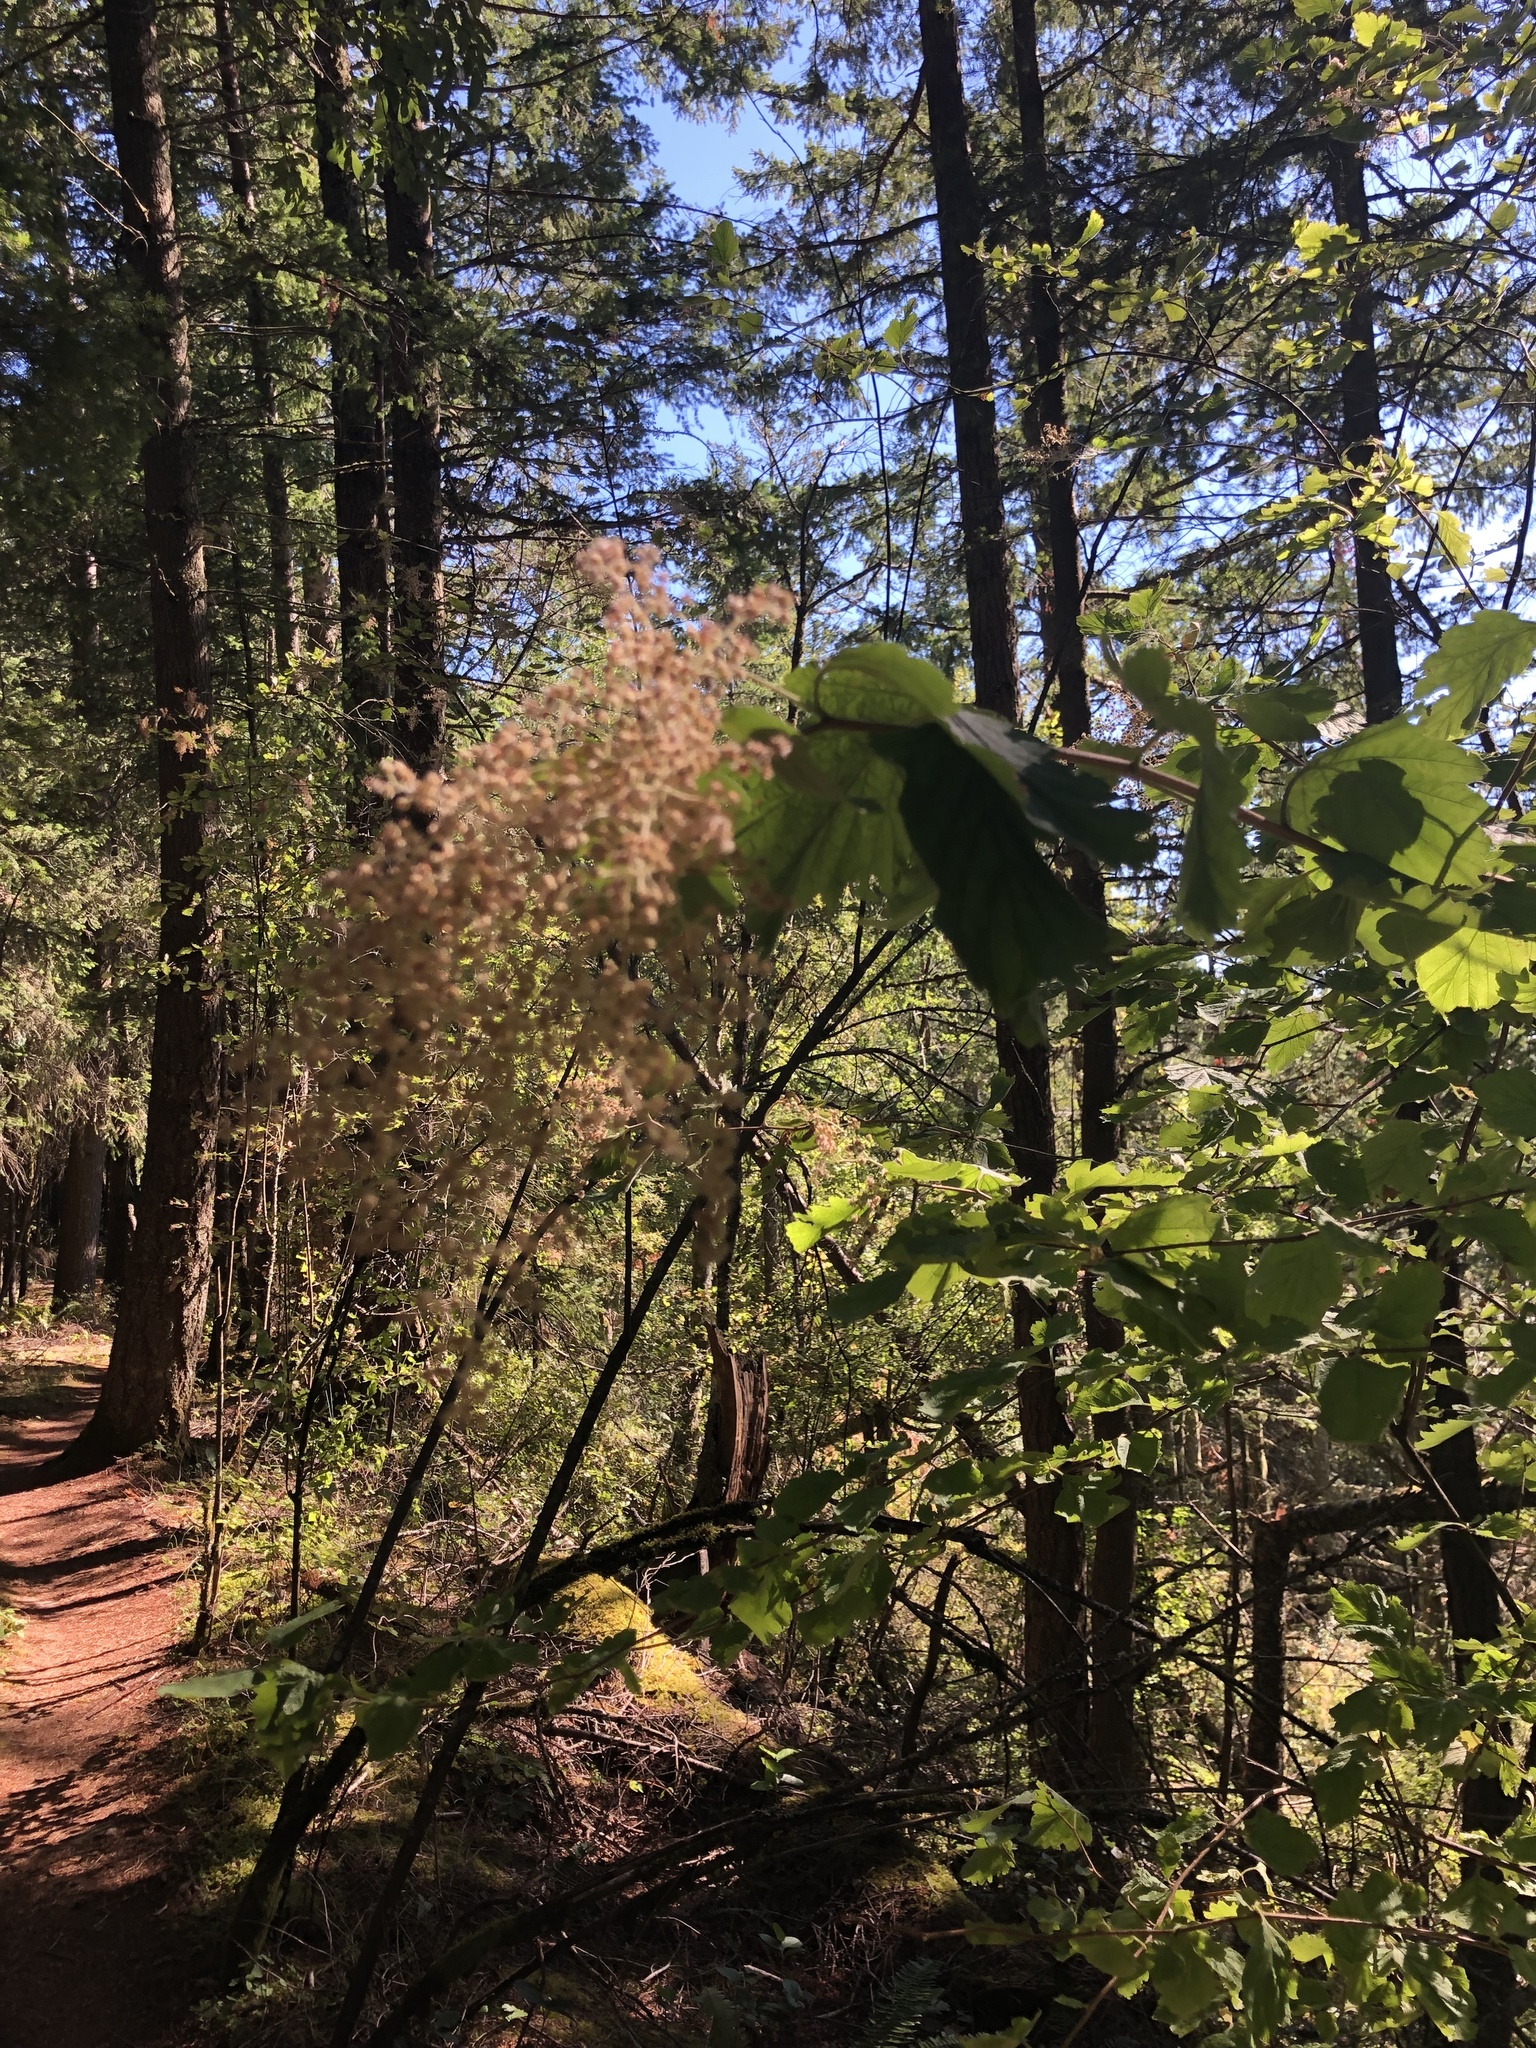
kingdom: Plantae
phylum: Tracheophyta
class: Magnoliopsida
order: Rosales
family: Rosaceae
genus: Holodiscus
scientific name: Holodiscus discolor
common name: Oceanspray
